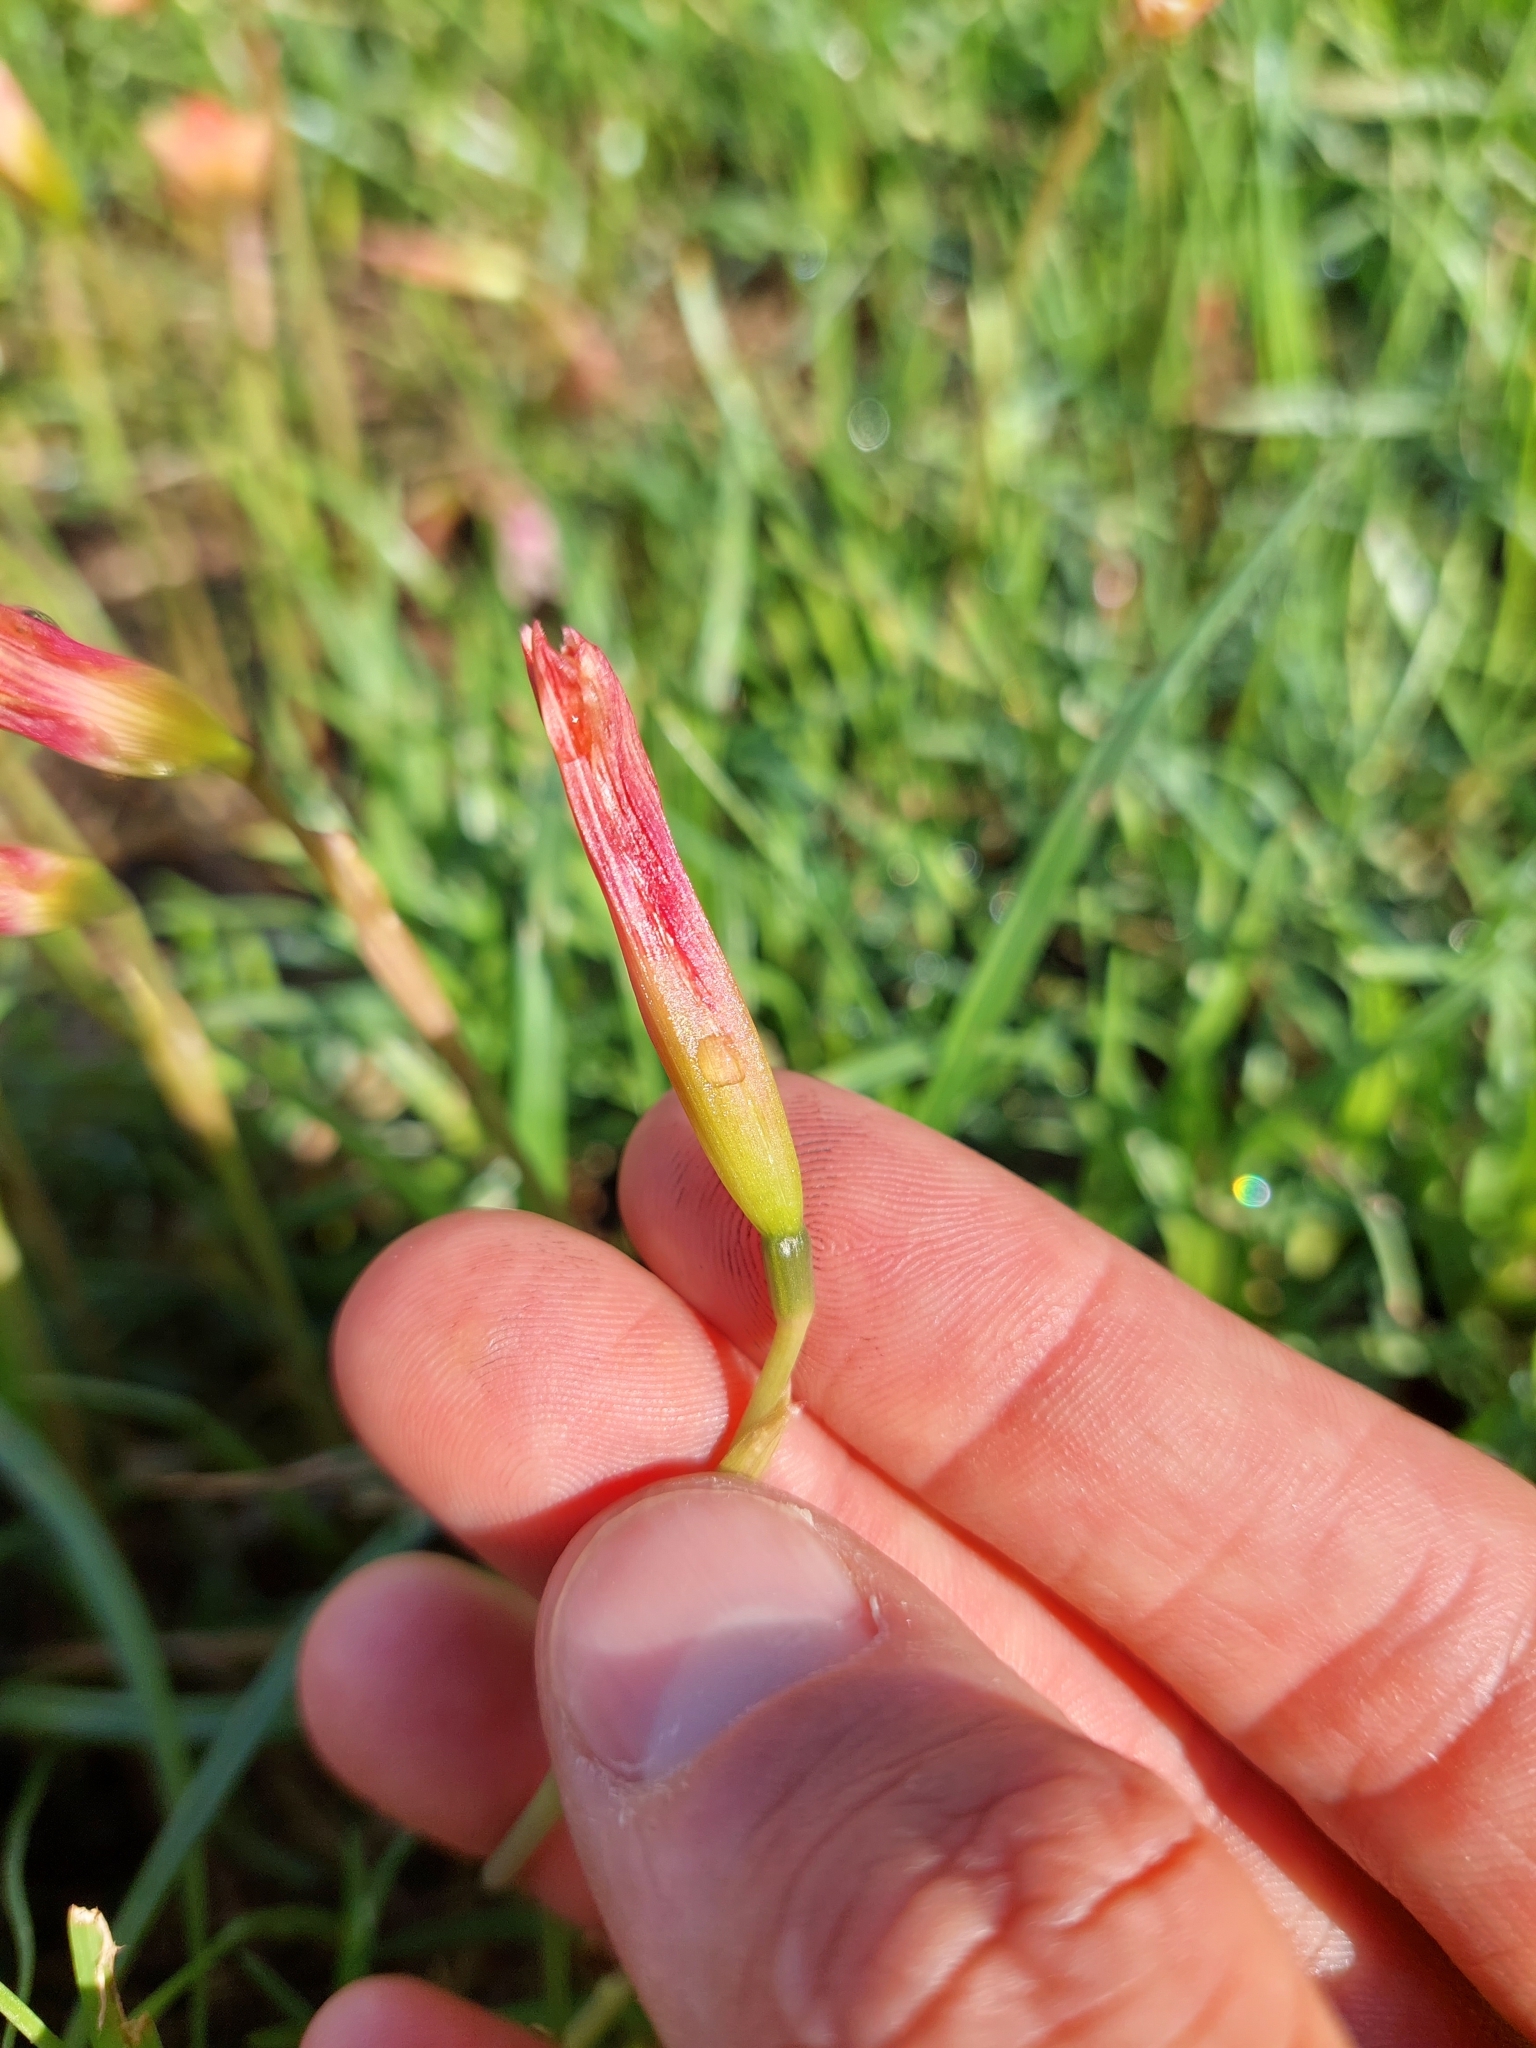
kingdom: Plantae
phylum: Tracheophyta
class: Liliopsida
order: Asparagales
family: Amaryllidaceae
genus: Zephyranthes
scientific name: Zephyranthes tubispatha
